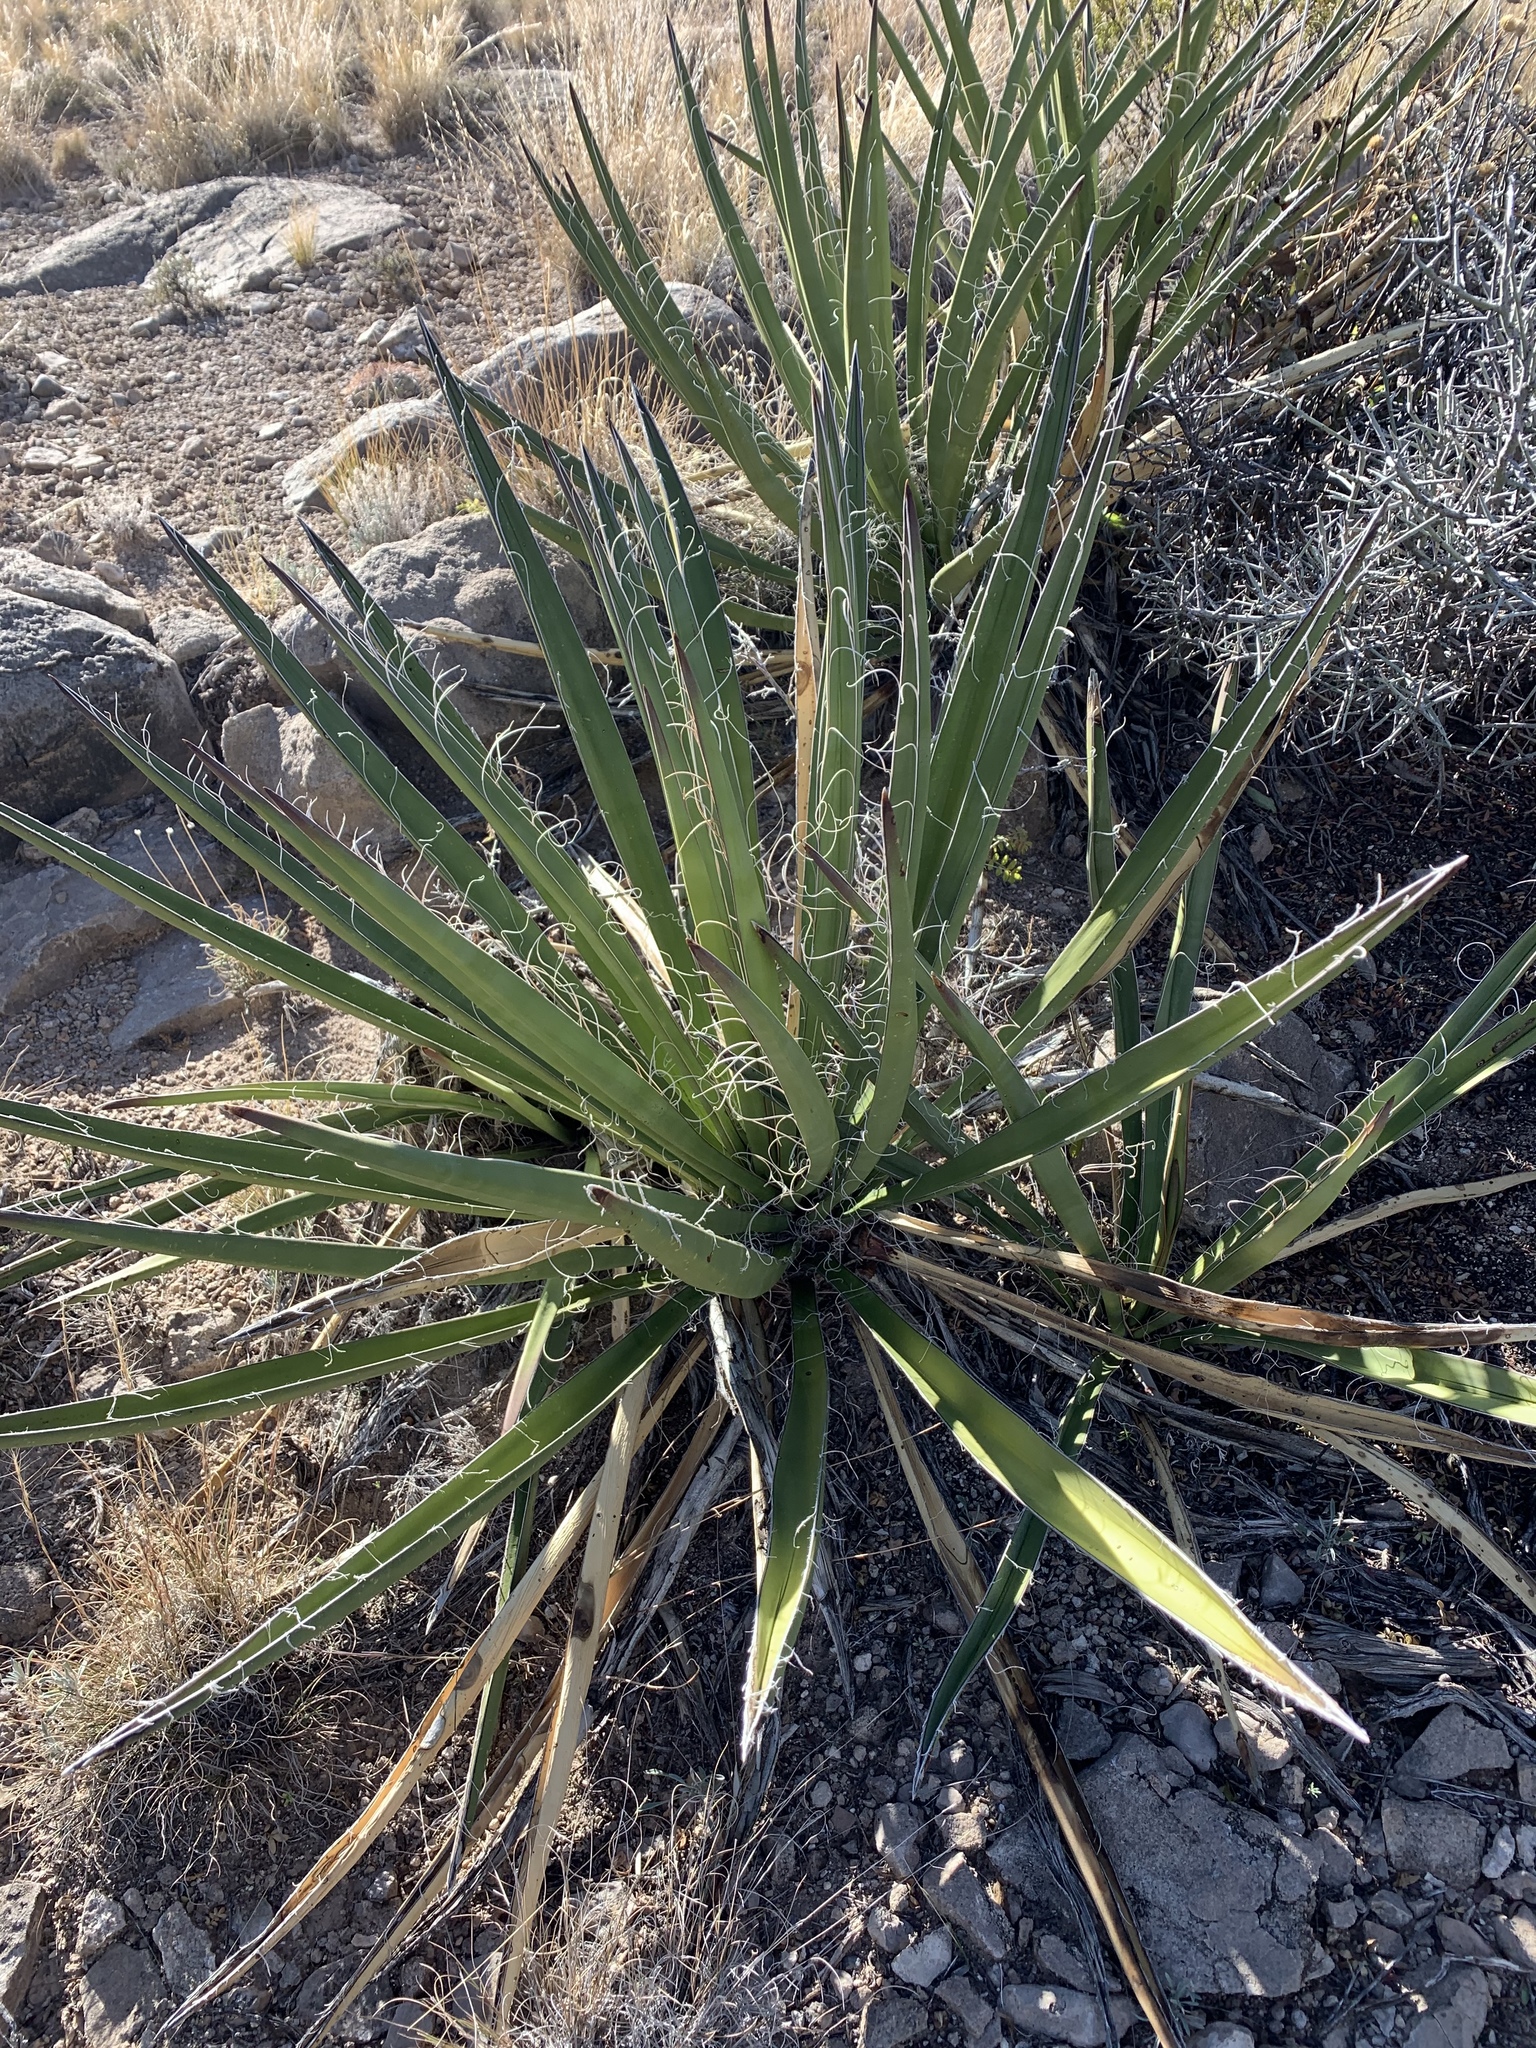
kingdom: Plantae
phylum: Tracheophyta
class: Liliopsida
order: Asparagales
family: Asparagaceae
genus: Yucca
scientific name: Yucca baccata
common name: Banana yucca
